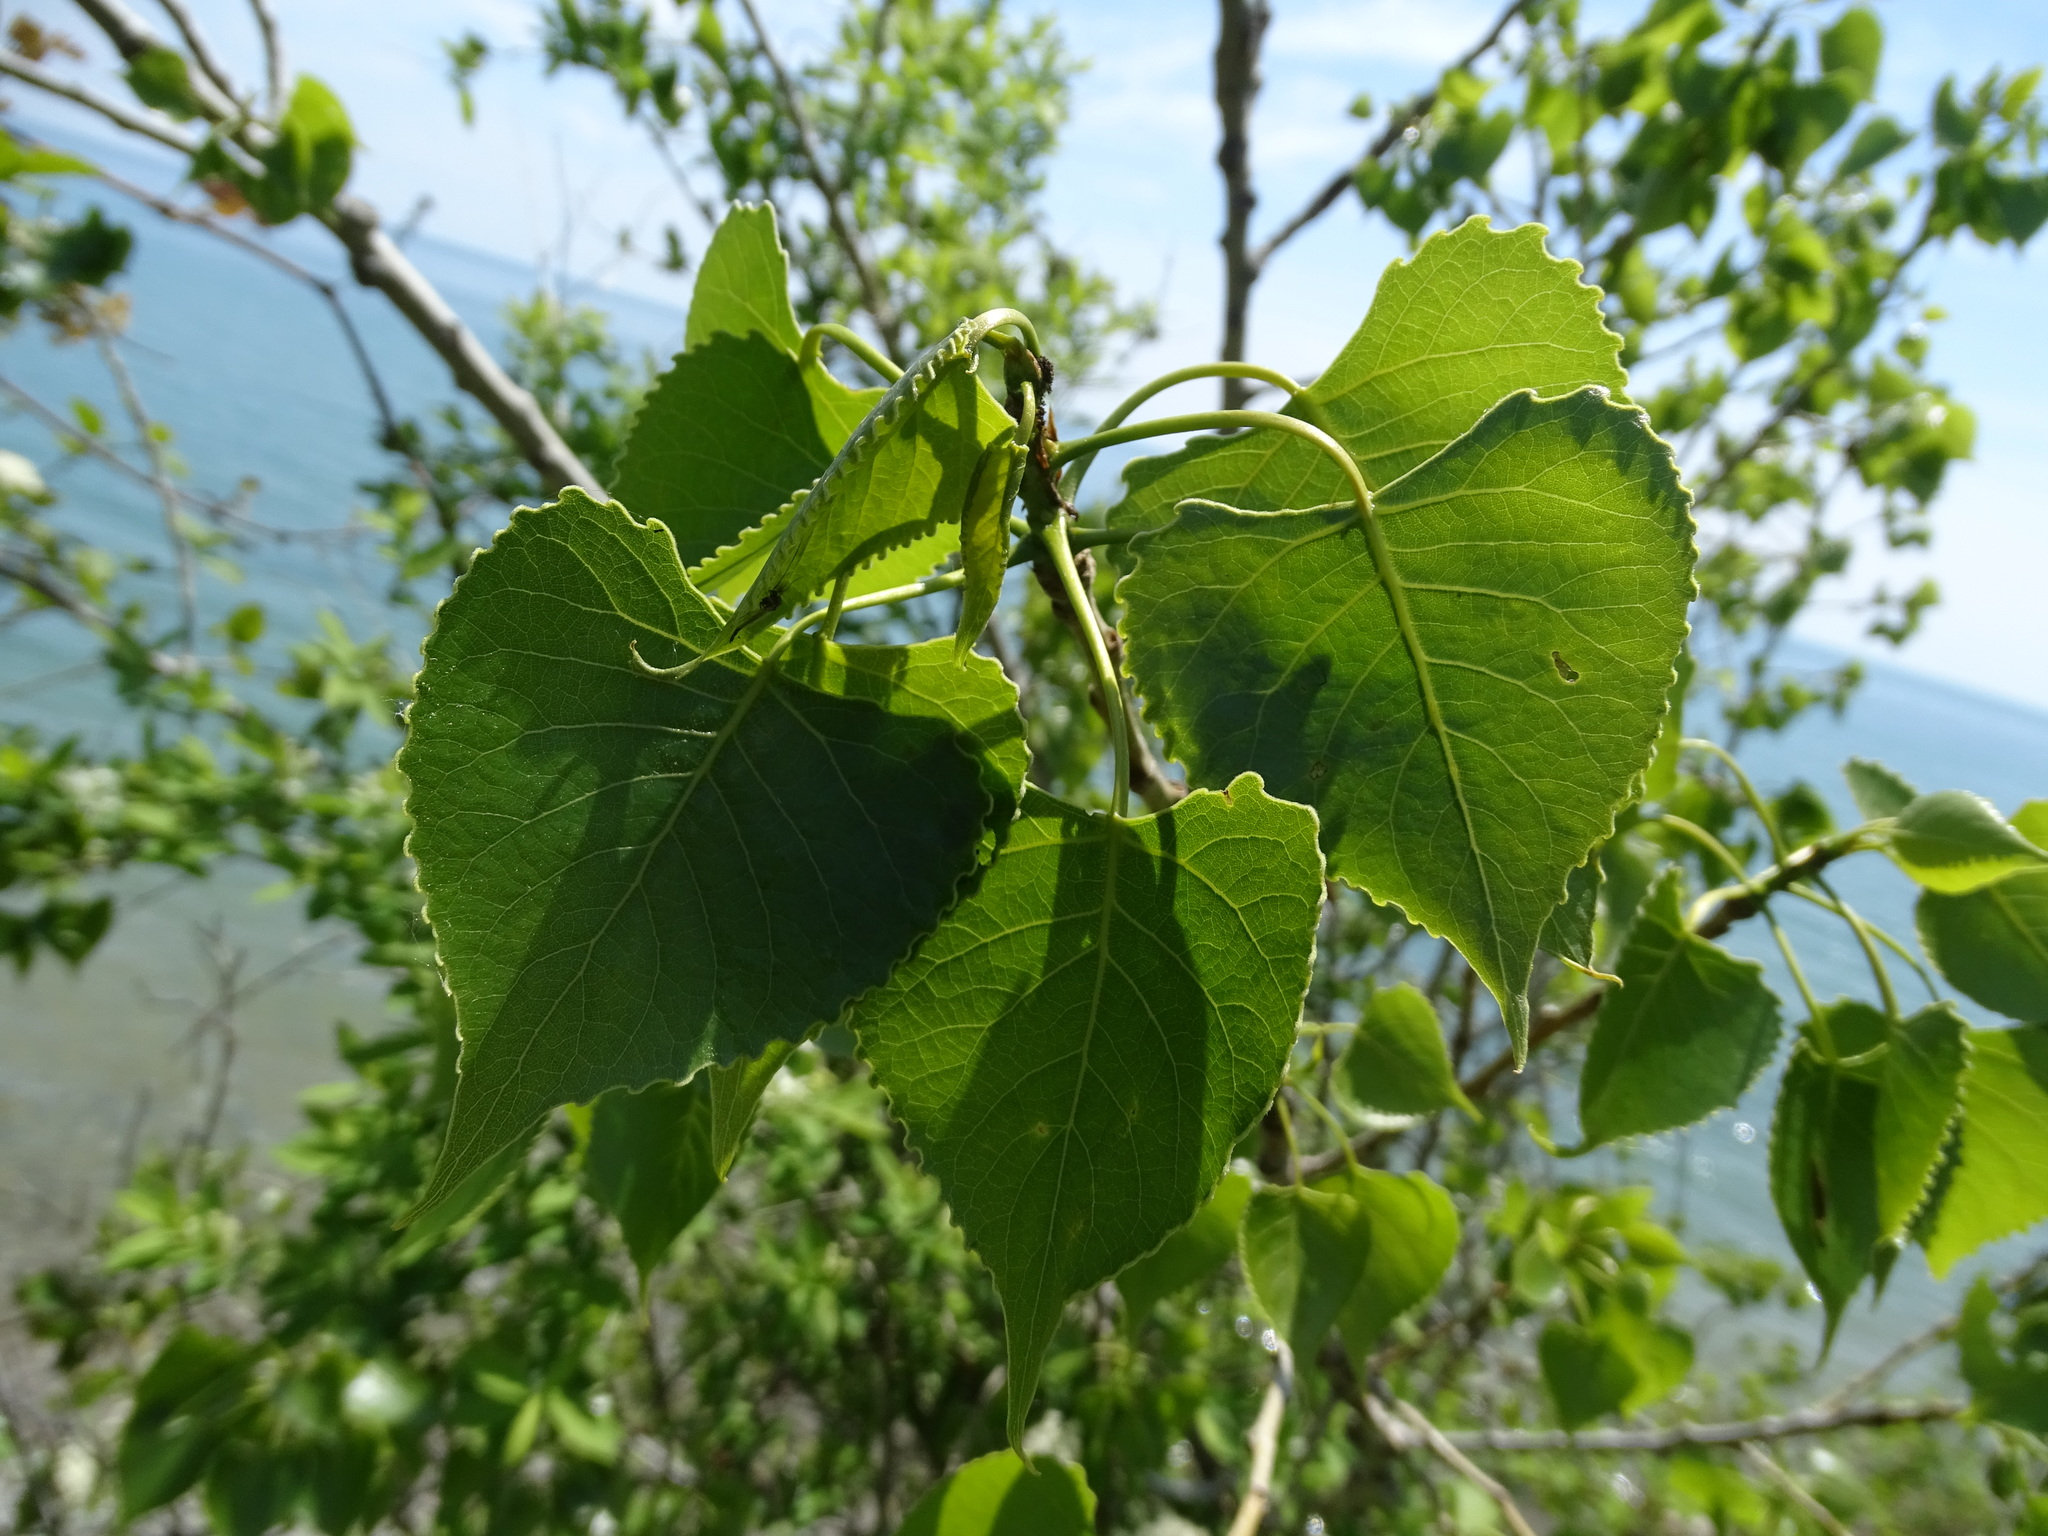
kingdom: Plantae
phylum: Tracheophyta
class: Magnoliopsida
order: Malpighiales
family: Salicaceae
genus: Populus
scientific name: Populus deltoides
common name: Eastern cottonwood
